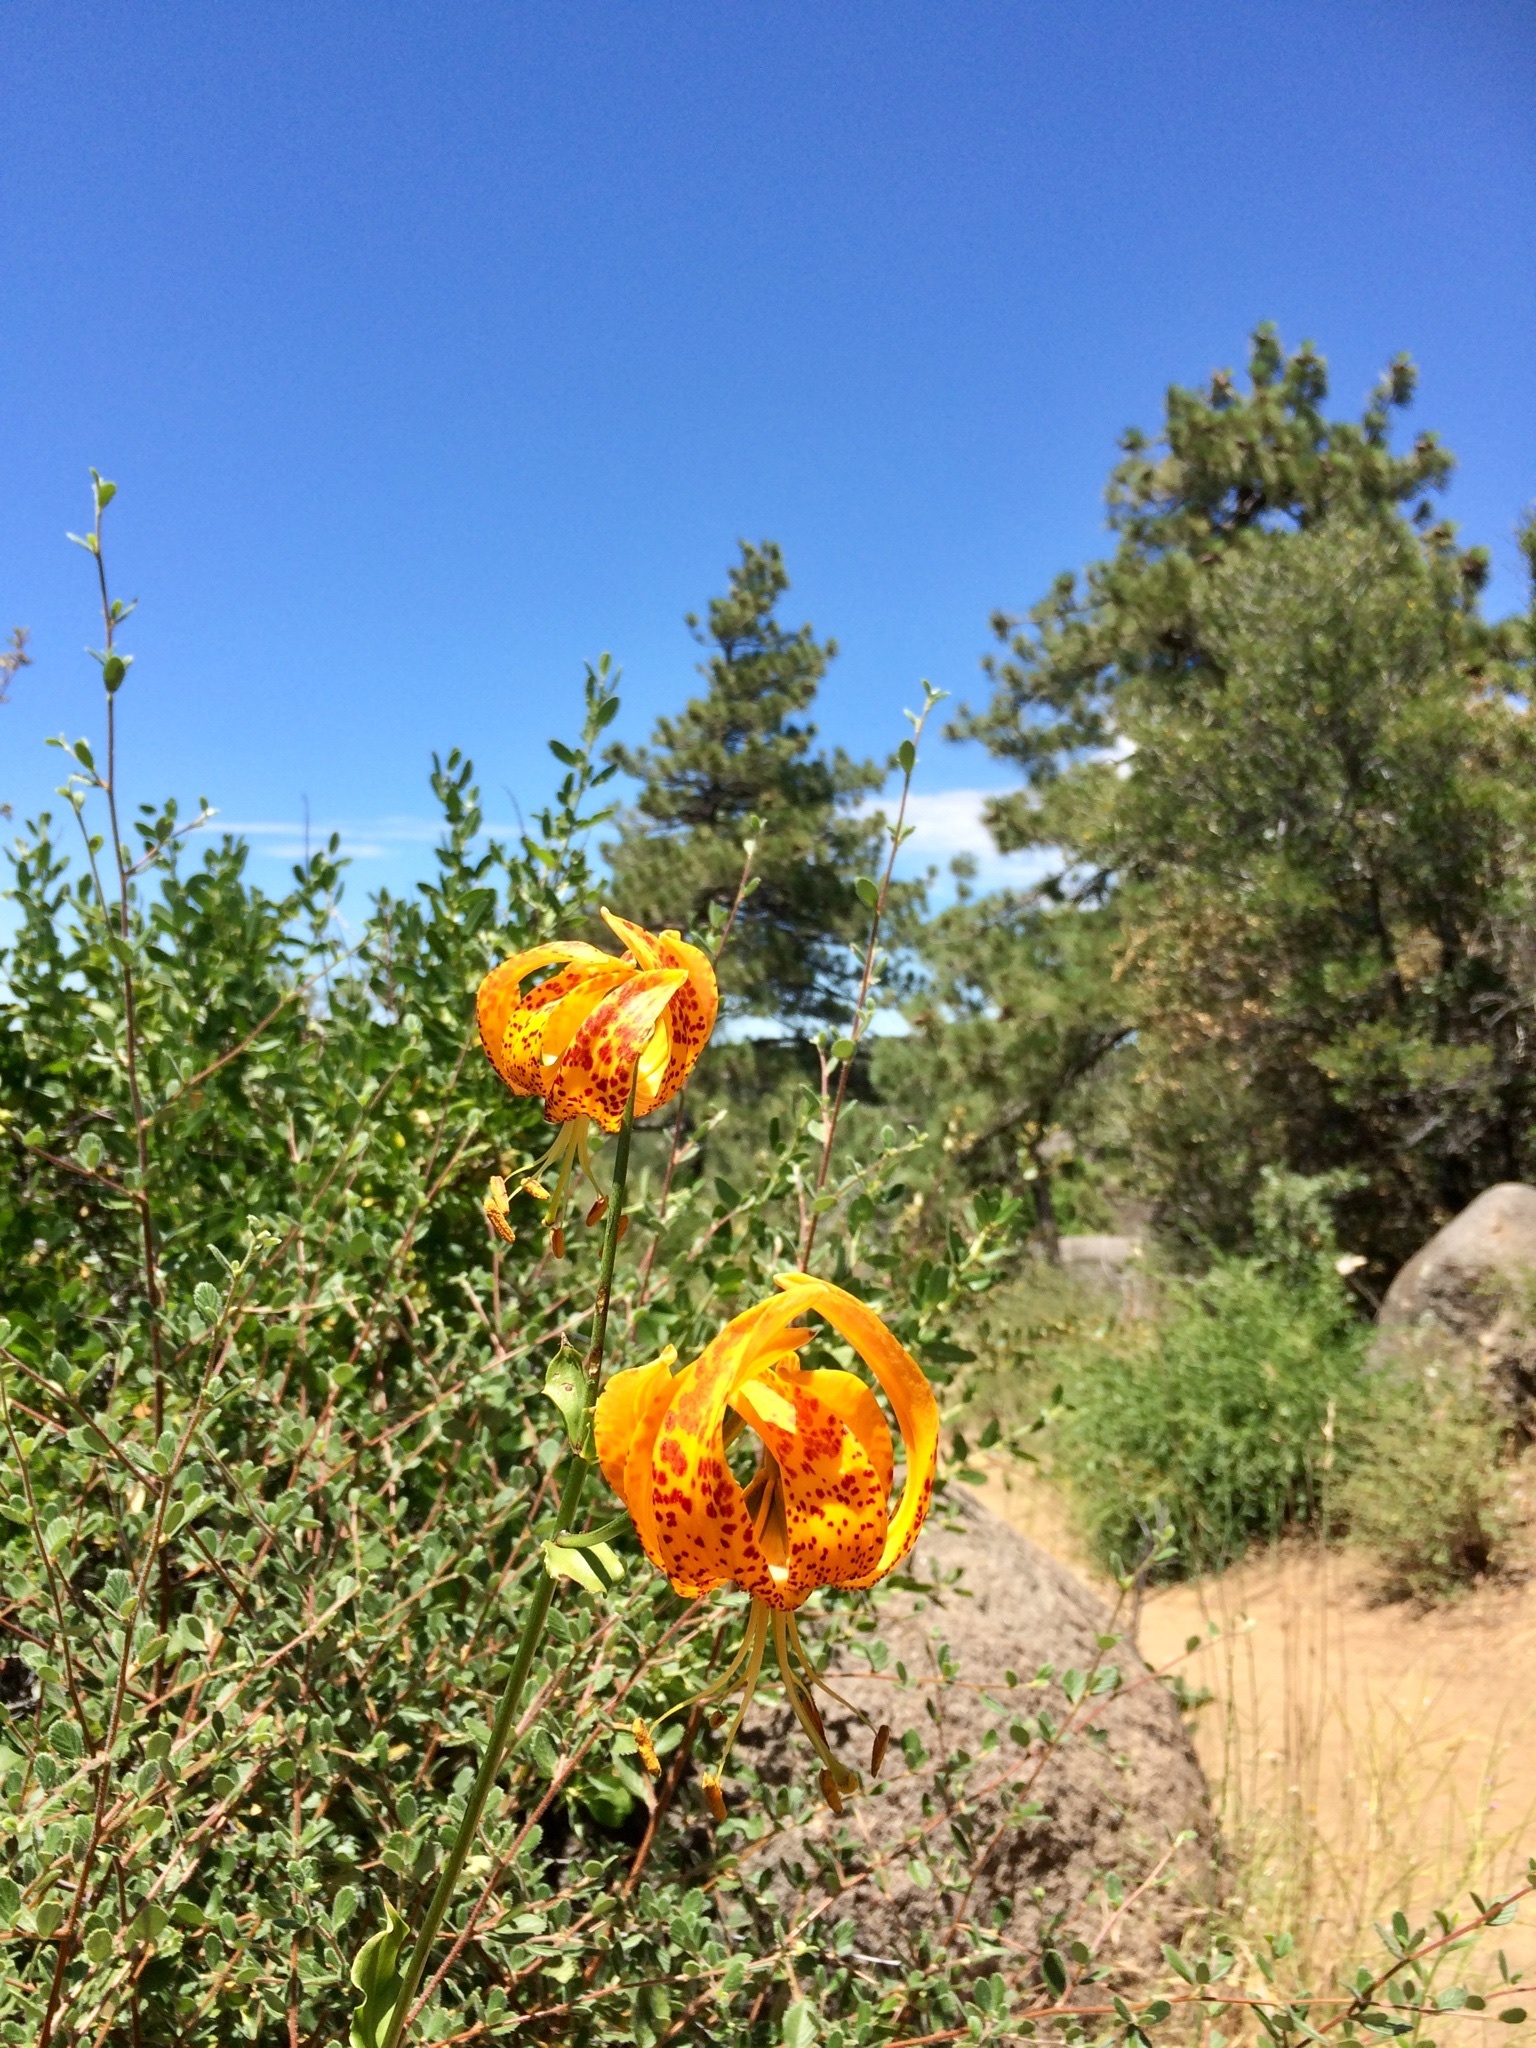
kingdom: Plantae
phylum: Tracheophyta
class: Liliopsida
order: Liliales
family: Liliaceae
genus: Lilium
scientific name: Lilium humboldtii
